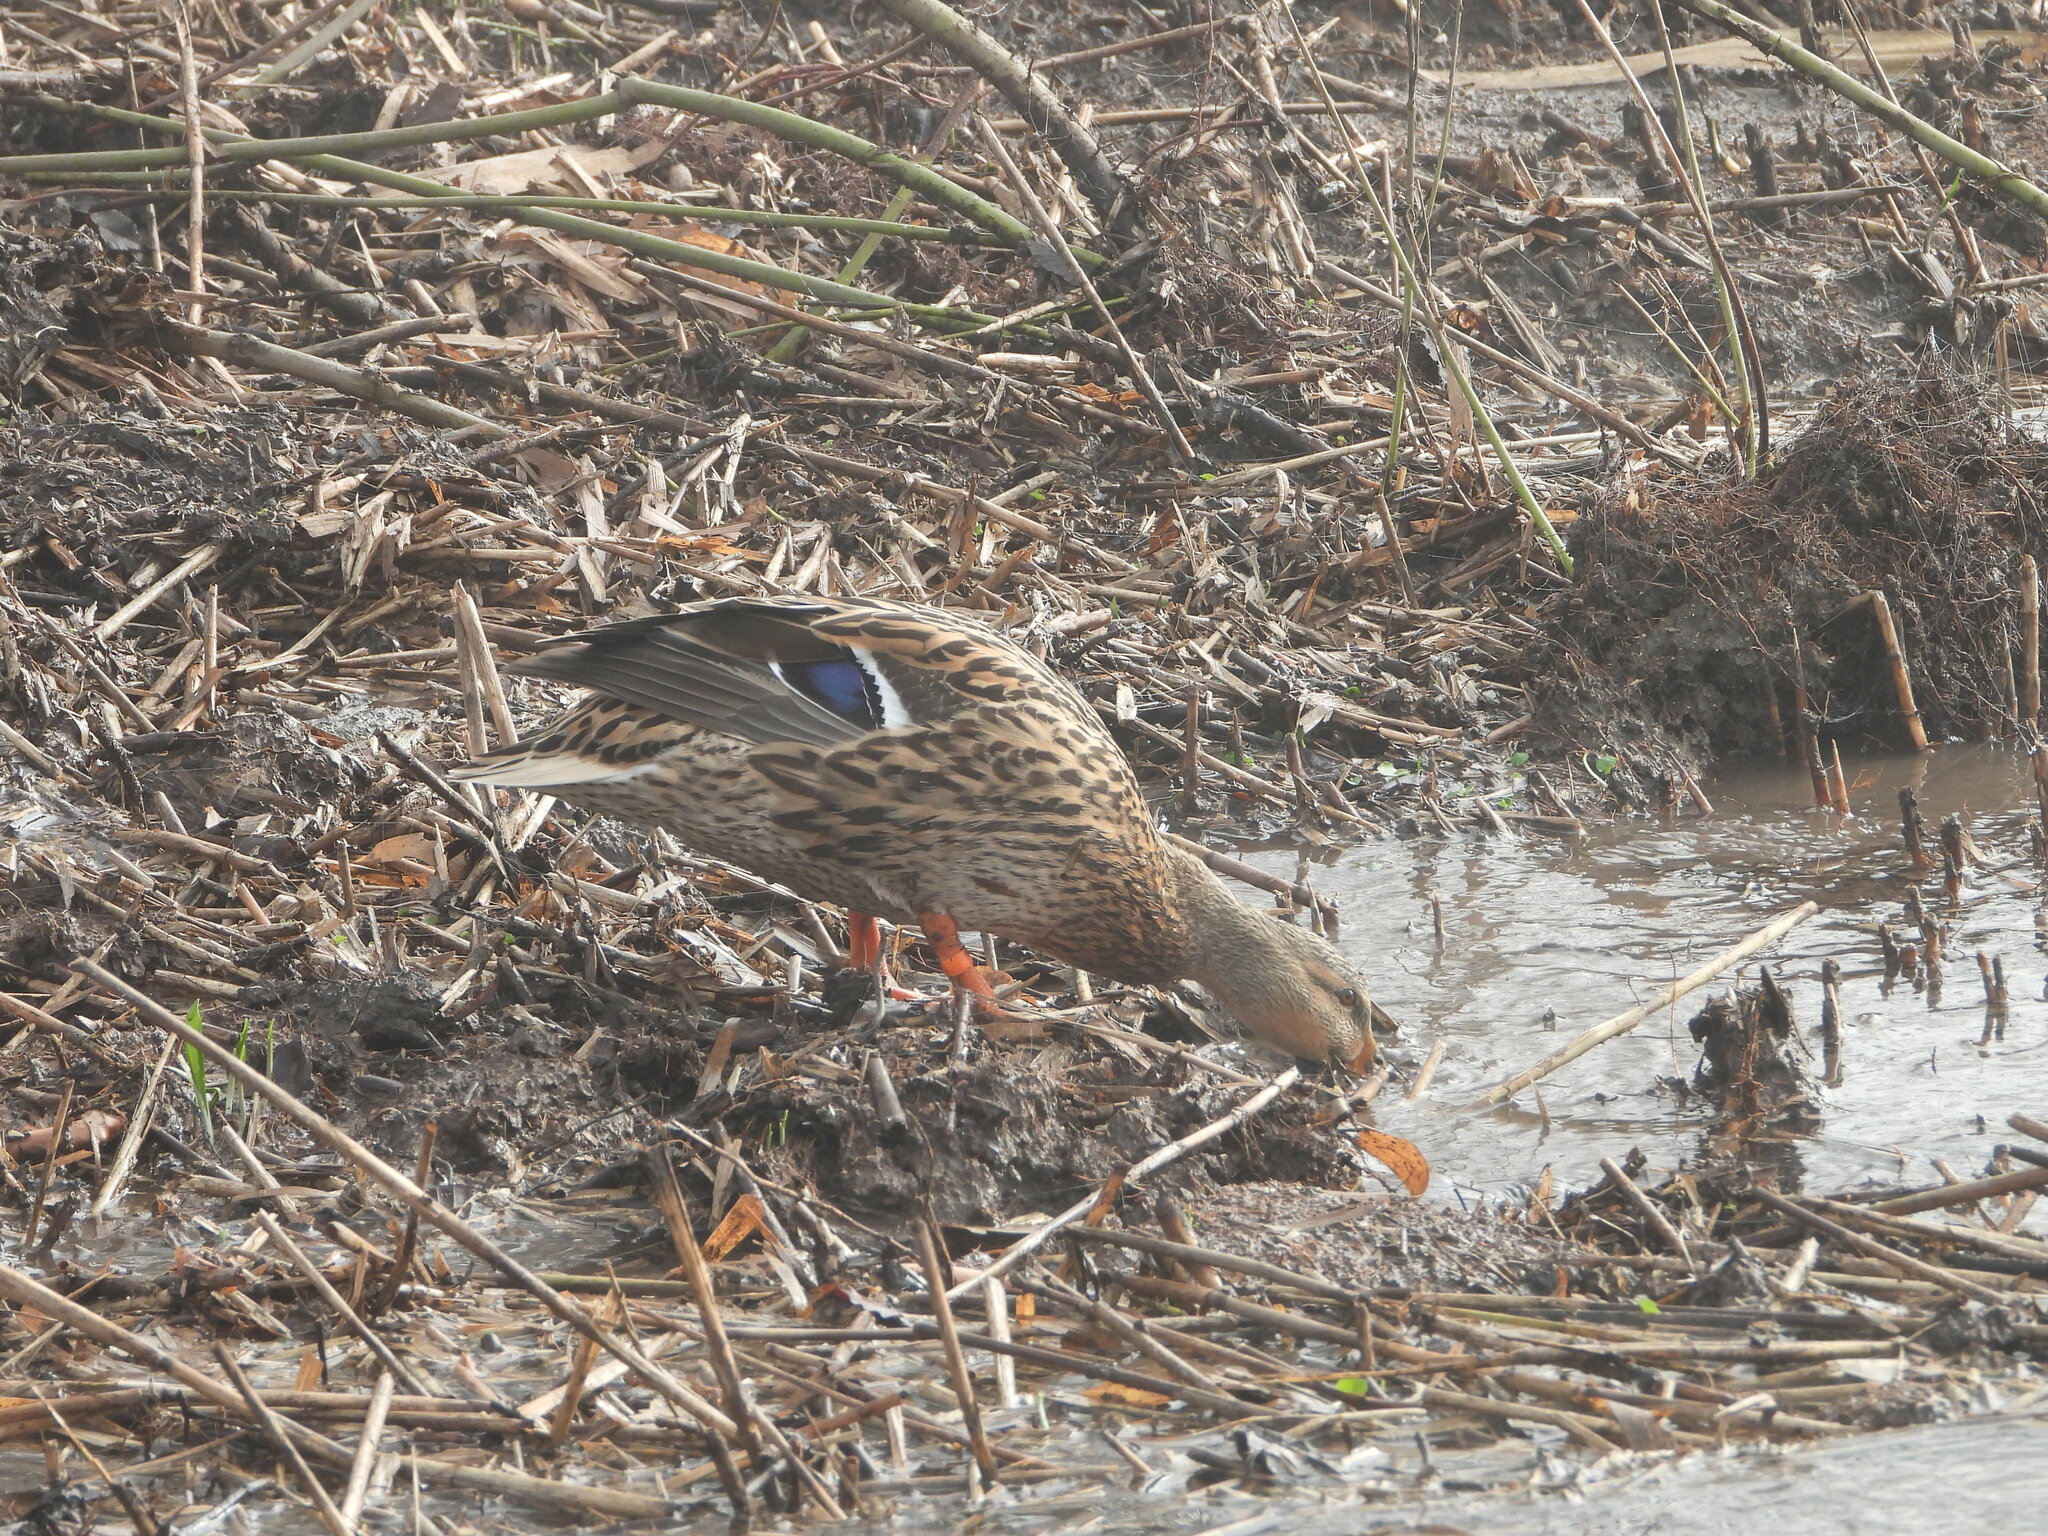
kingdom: Animalia
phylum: Chordata
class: Aves
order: Anseriformes
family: Anatidae
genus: Anas
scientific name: Anas platyrhynchos
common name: Mallard
